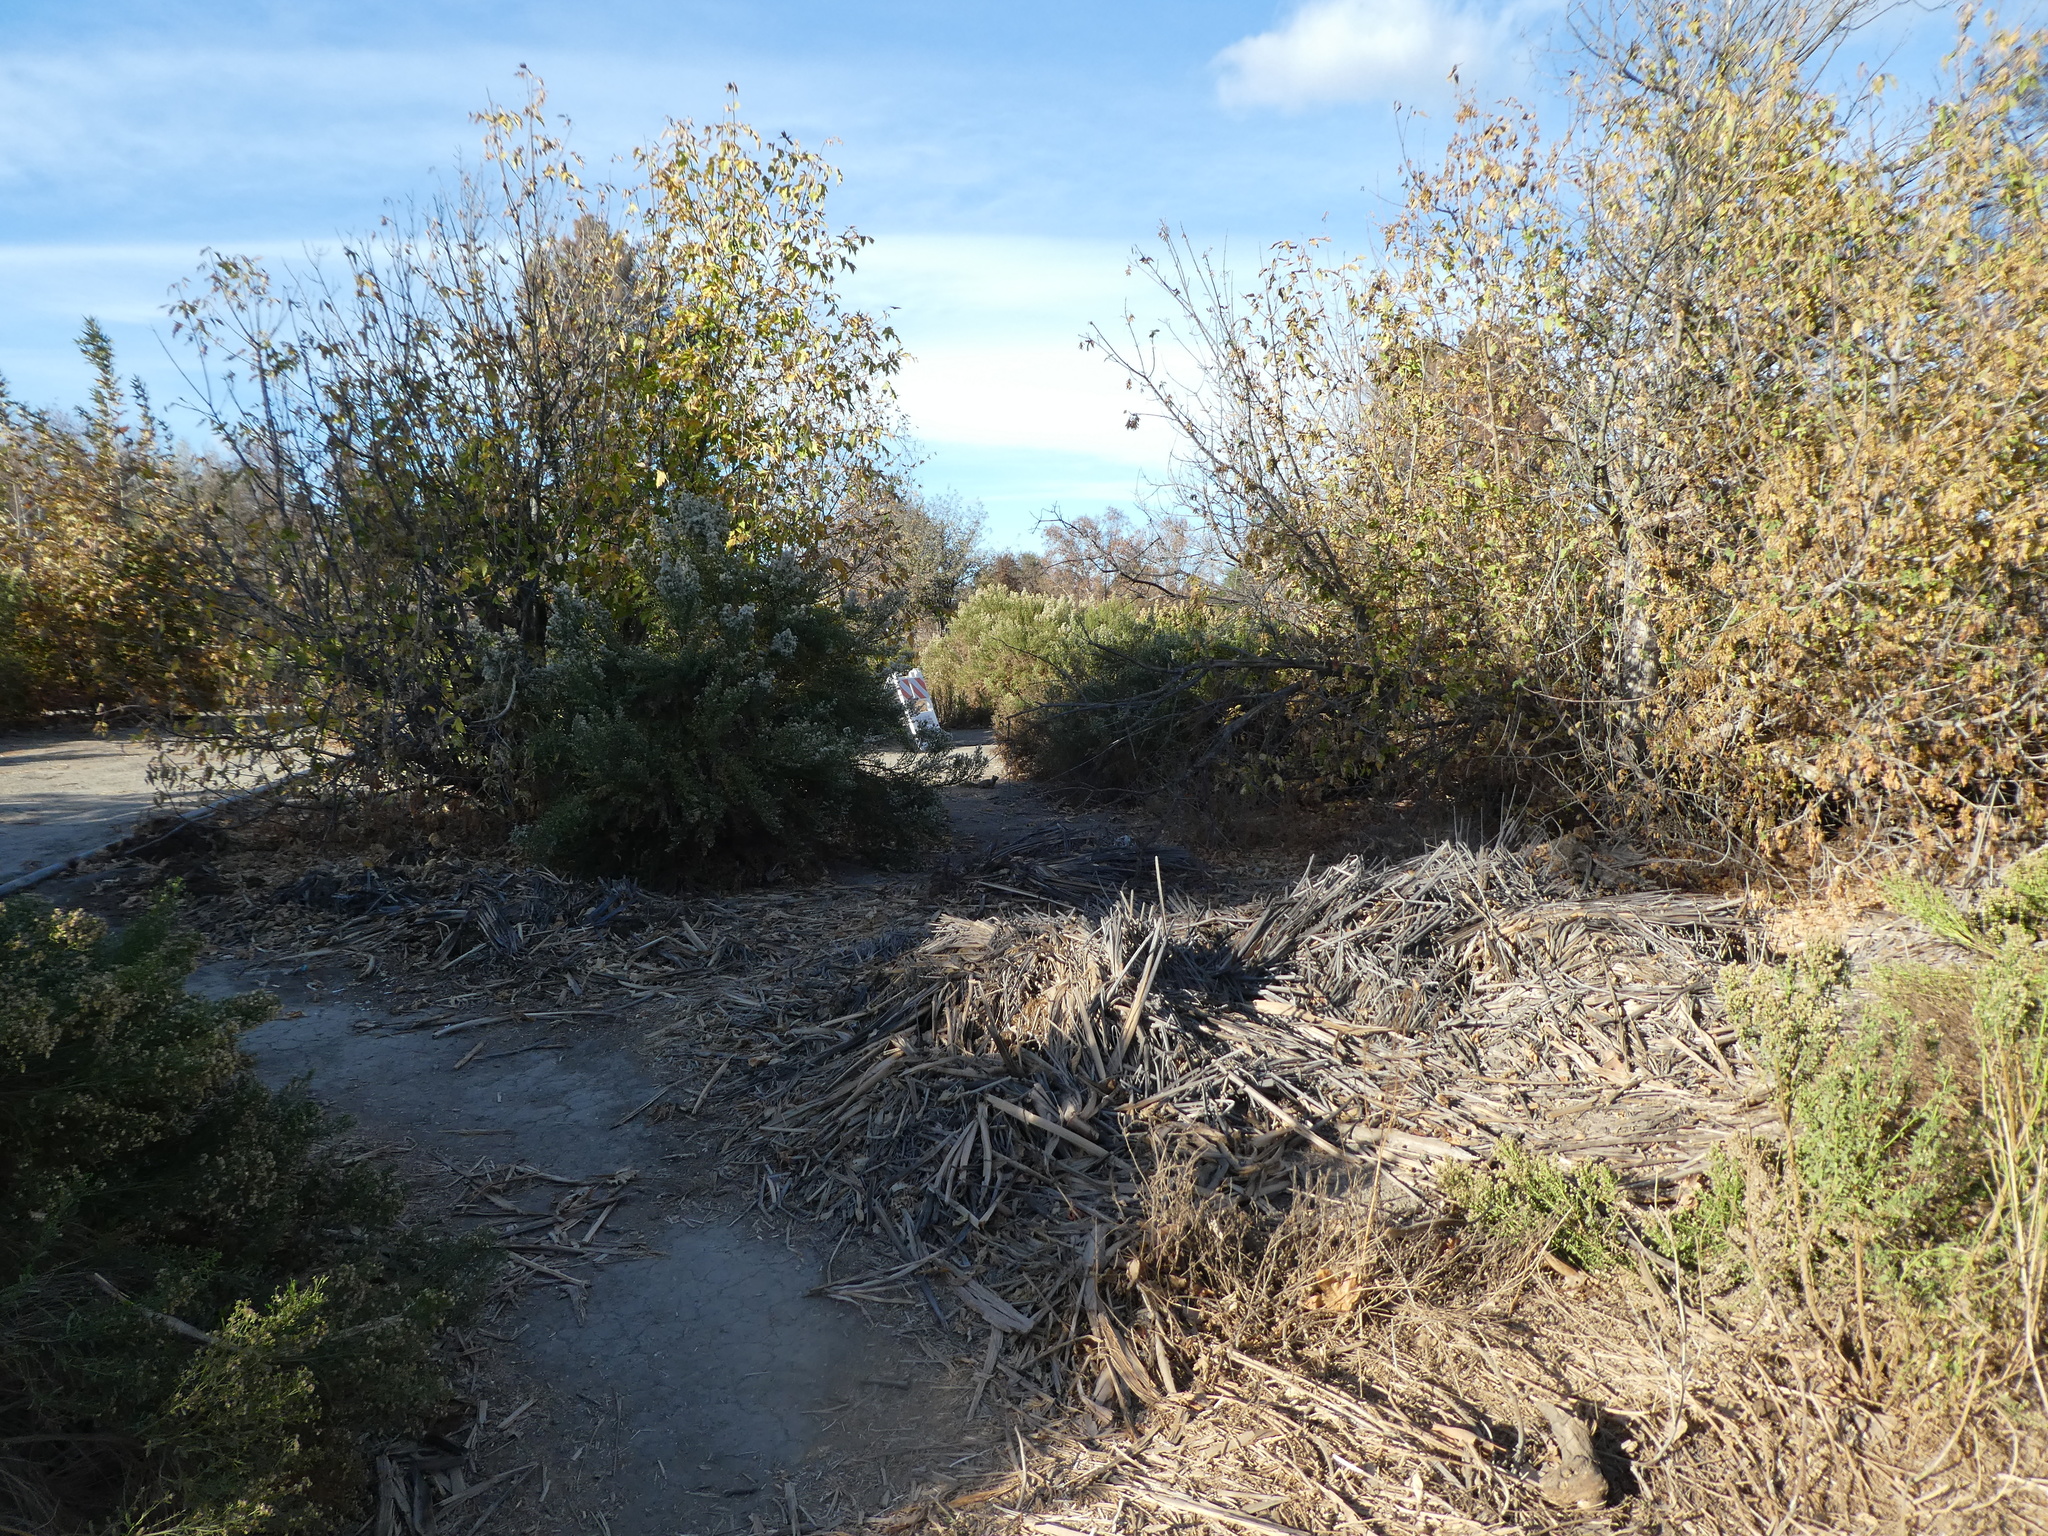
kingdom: Animalia
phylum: Chordata
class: Mammalia
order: Rodentia
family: Sciuridae
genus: Otospermophilus
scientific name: Otospermophilus beecheyi
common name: California ground squirrel
